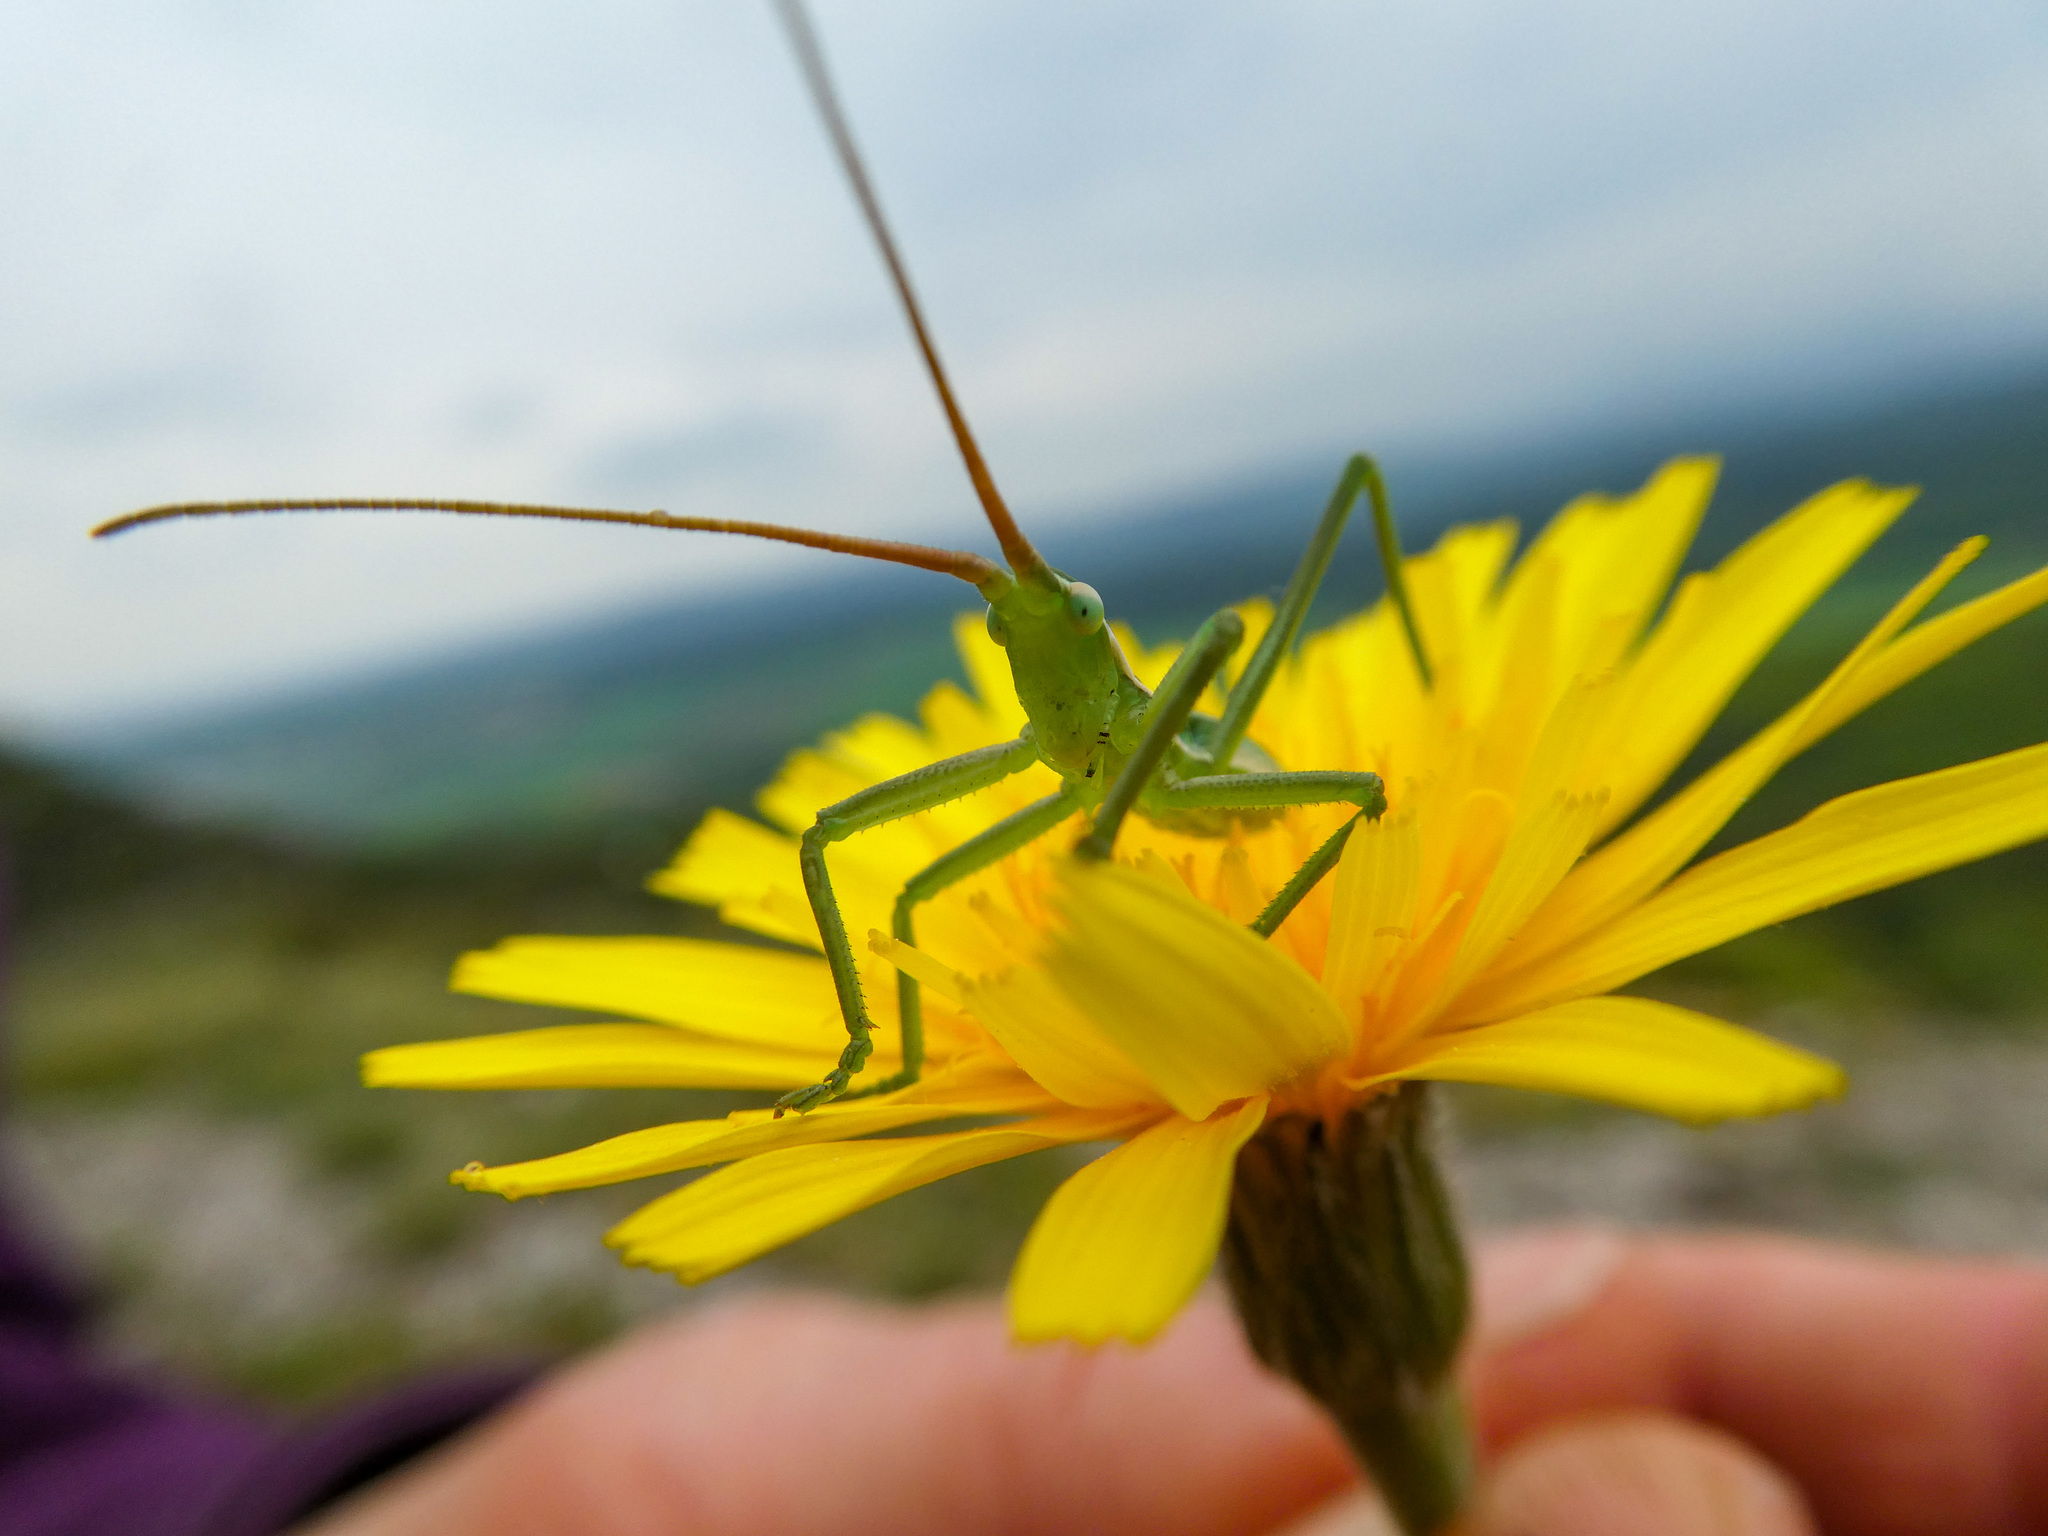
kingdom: Animalia
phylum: Arthropoda
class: Insecta
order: Orthoptera
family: Tettigoniidae
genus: Saga
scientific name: Saga pedo
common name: Common predatory bush-cricket
